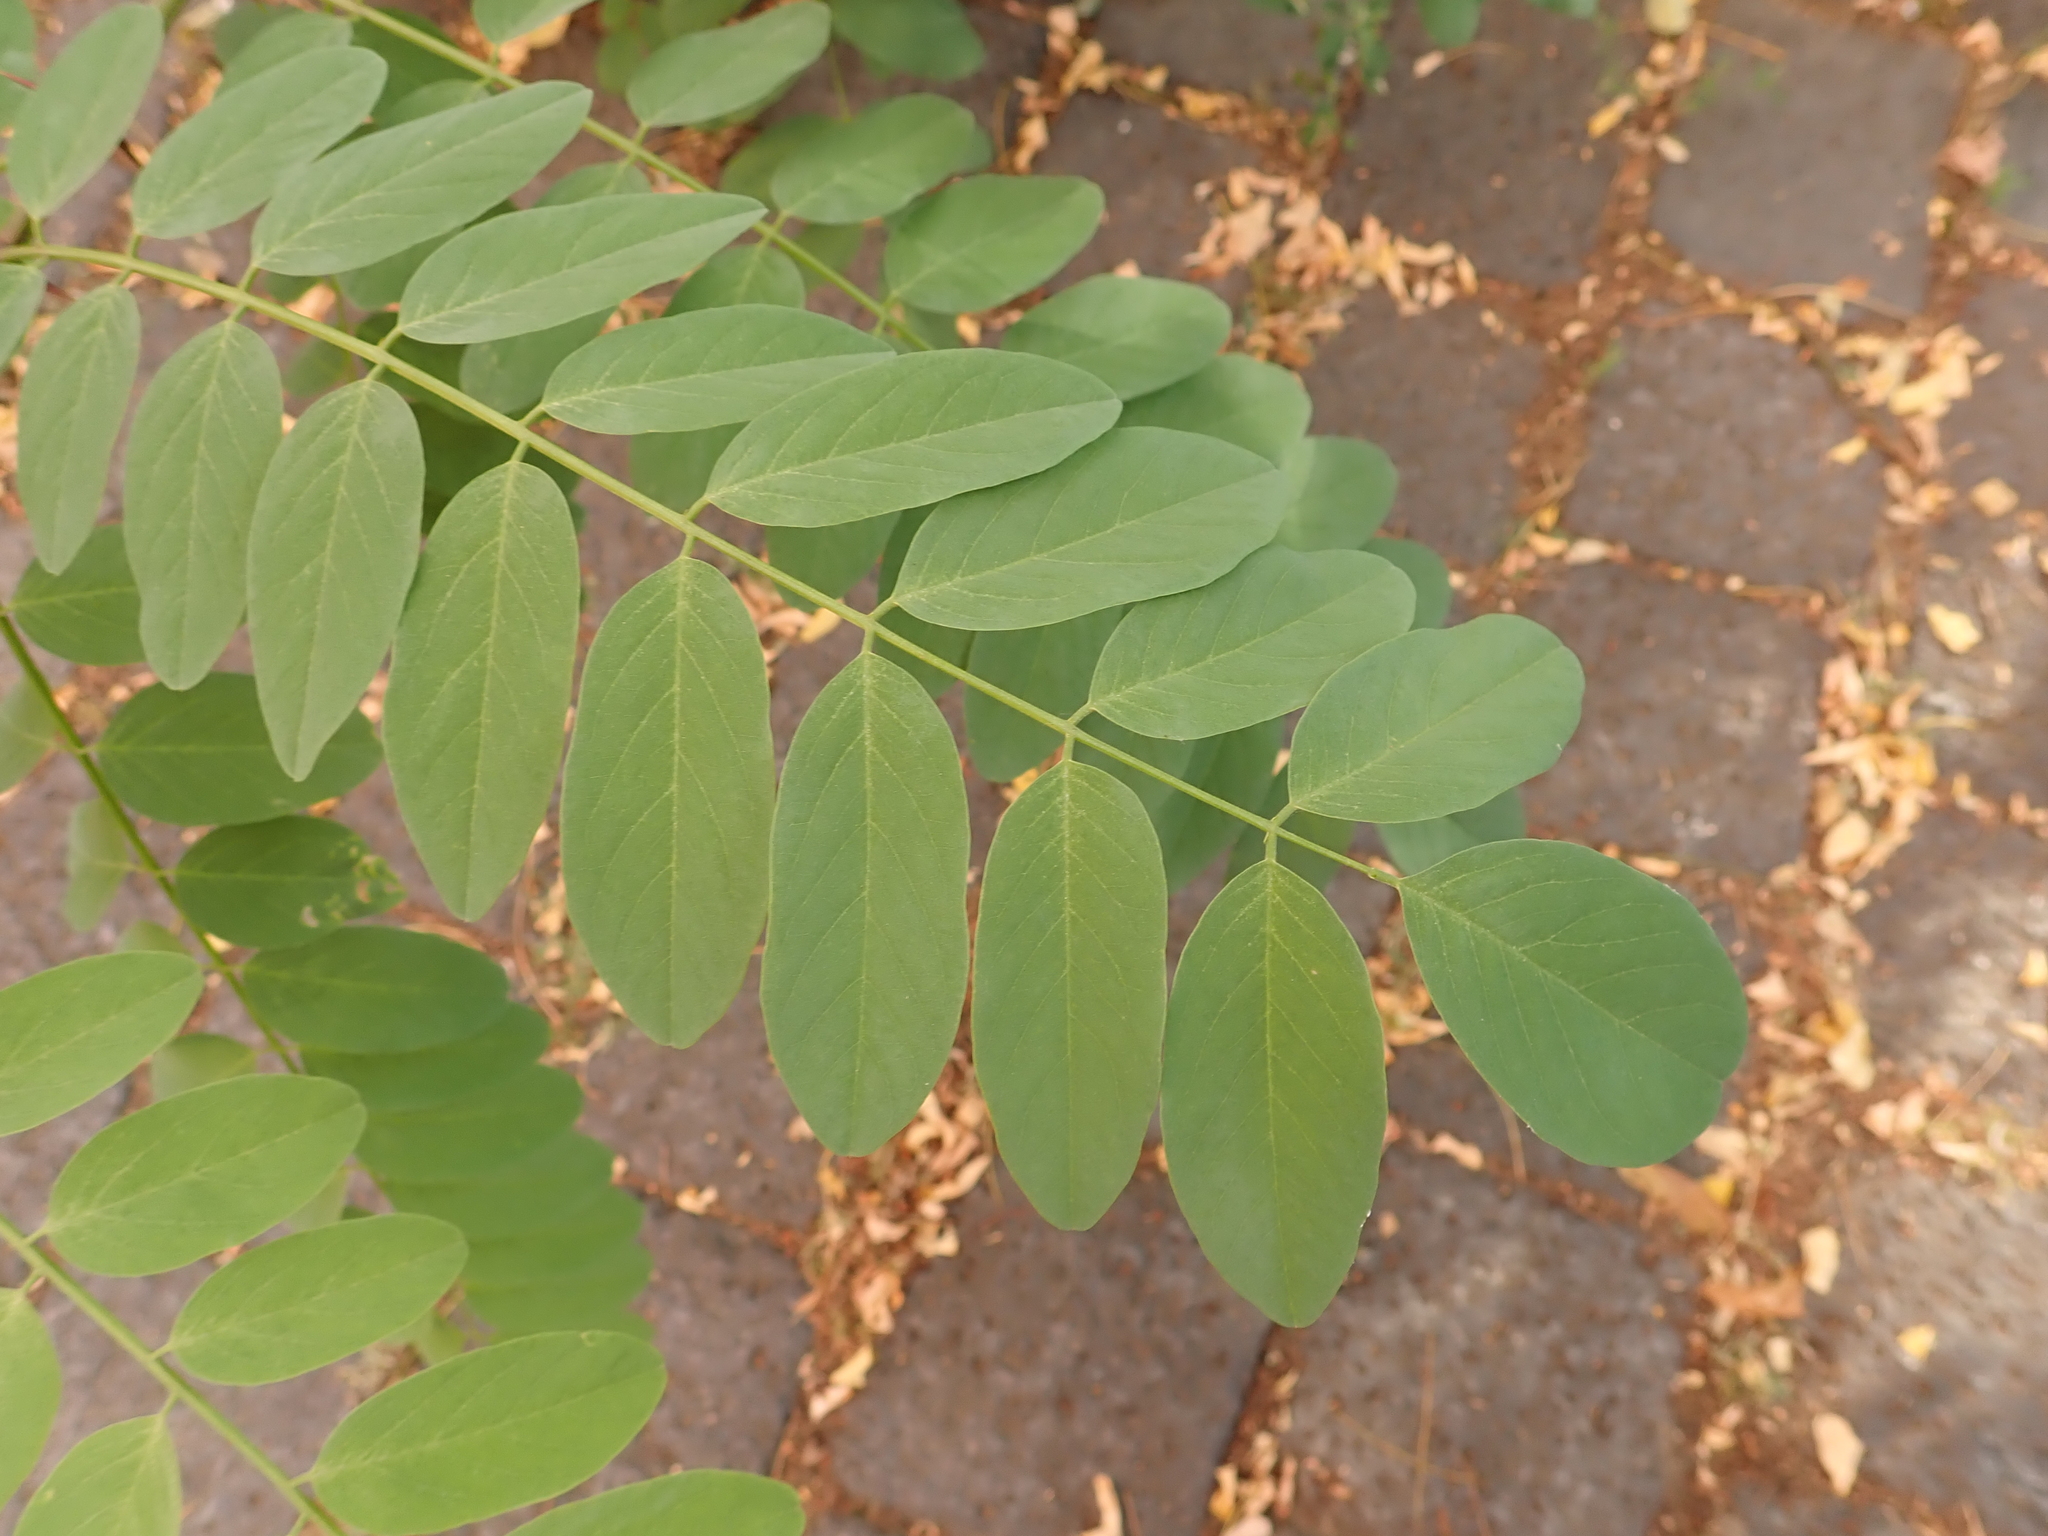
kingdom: Plantae
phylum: Tracheophyta
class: Magnoliopsida
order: Fabales
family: Fabaceae
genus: Robinia
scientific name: Robinia pseudoacacia
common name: Black locust
